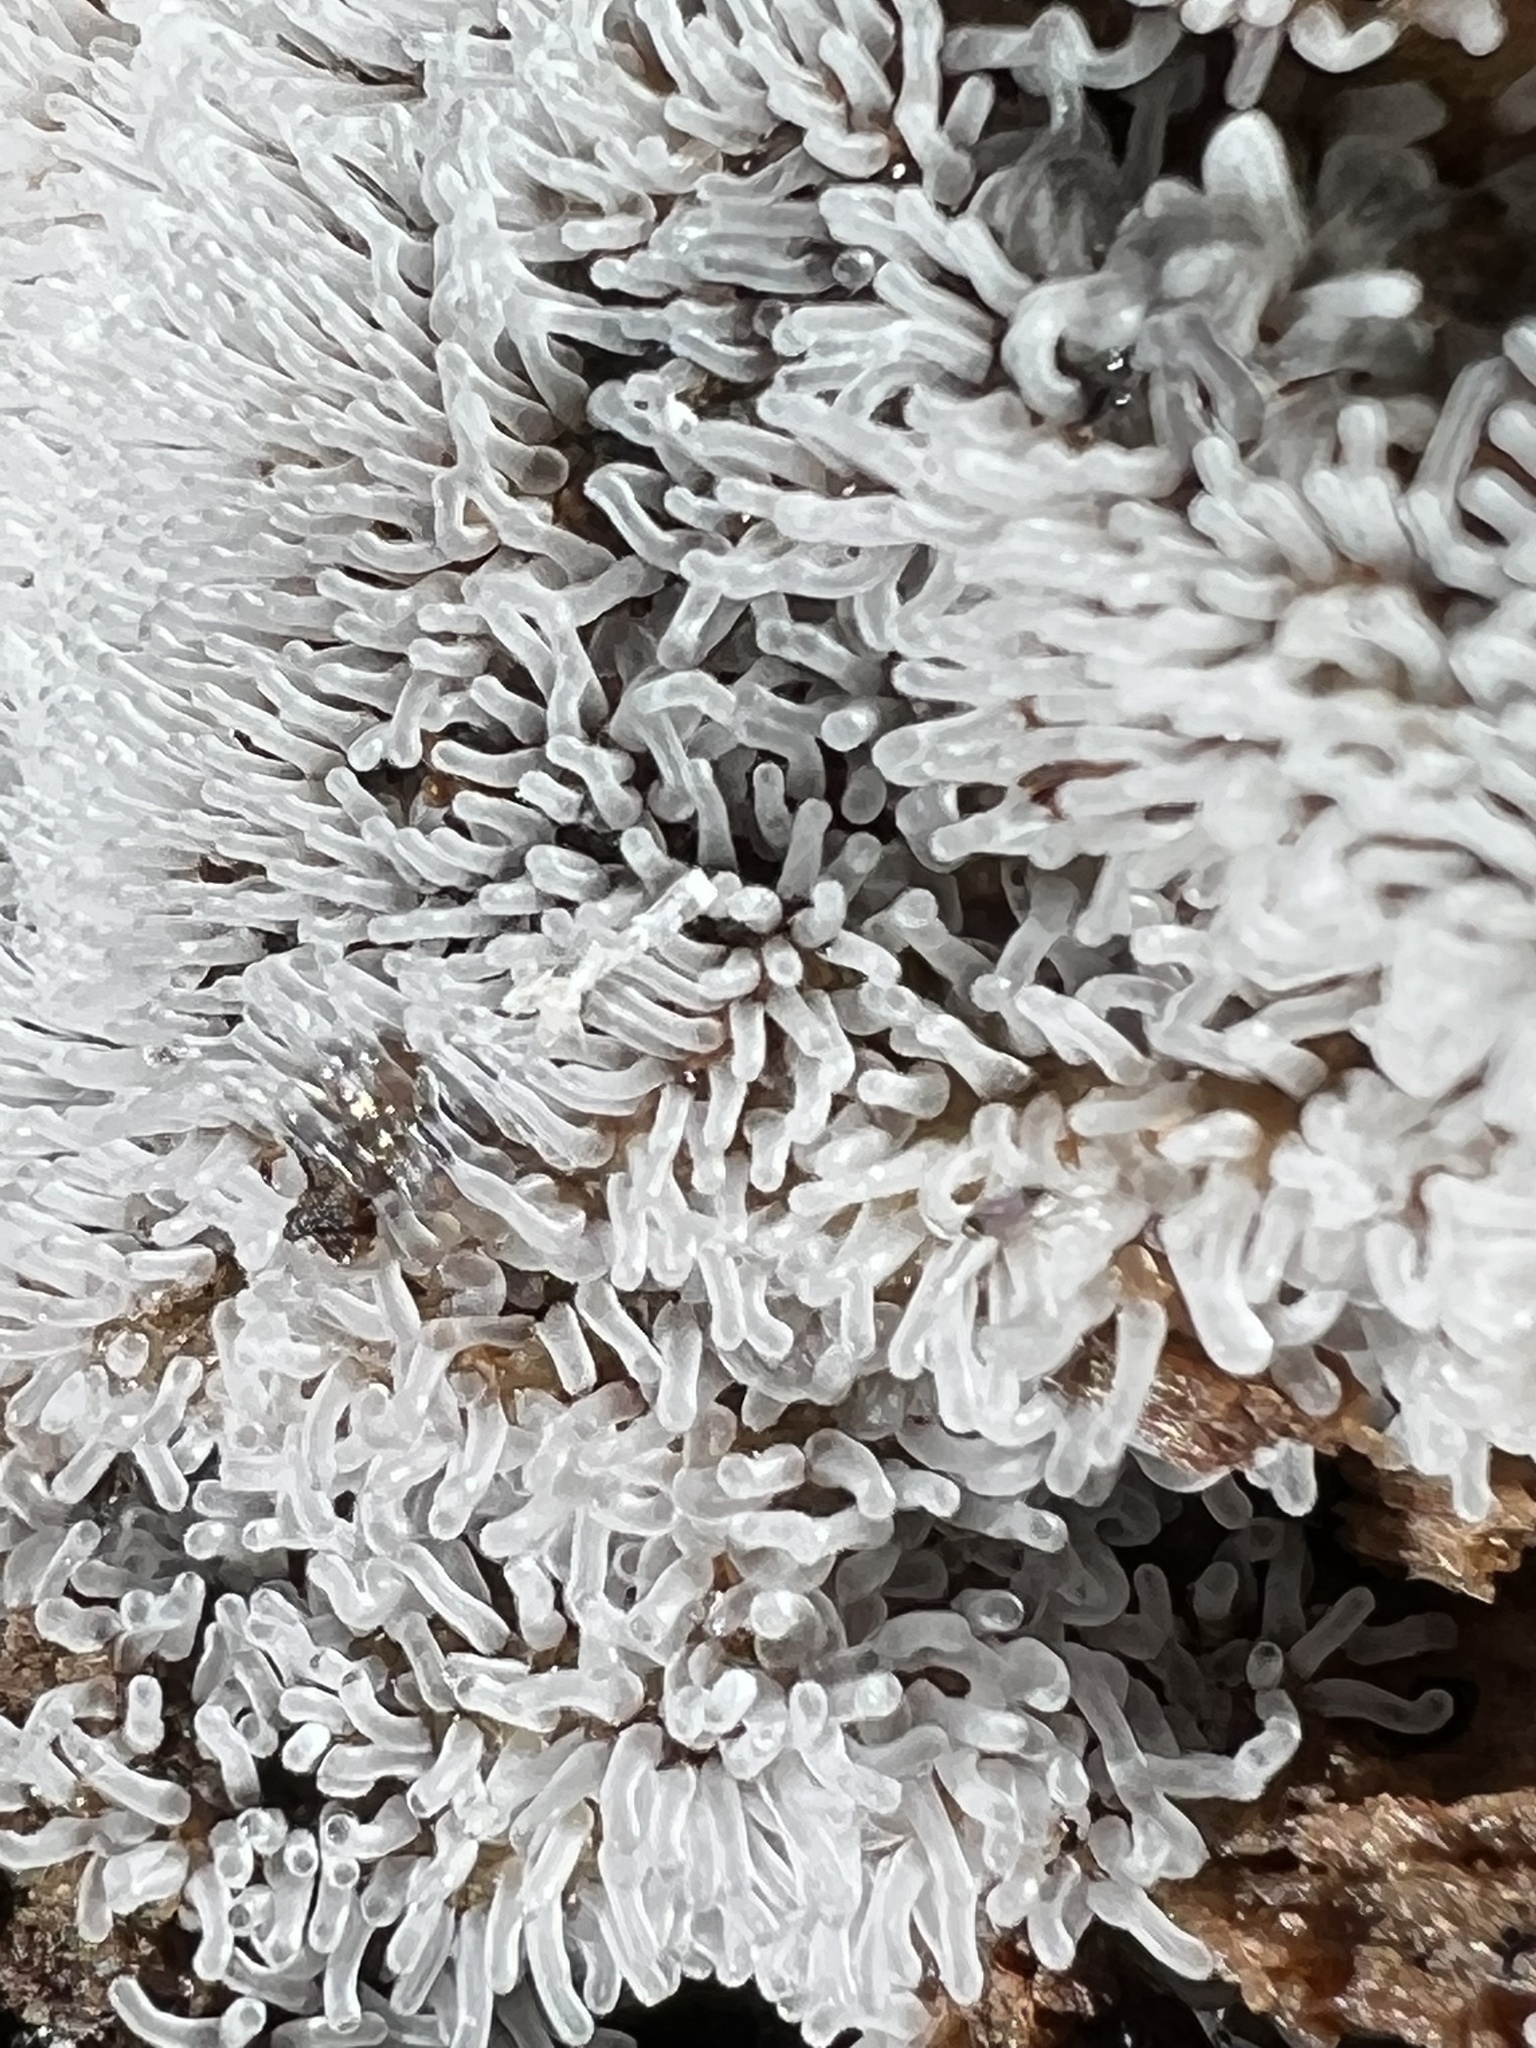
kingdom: Protozoa
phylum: Mycetozoa
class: Protosteliomycetes
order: Ceratiomyxales
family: Ceratiomyxaceae
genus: Ceratiomyxa
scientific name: Ceratiomyxa fruticulosa
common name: Honeycomb coral slime mold
